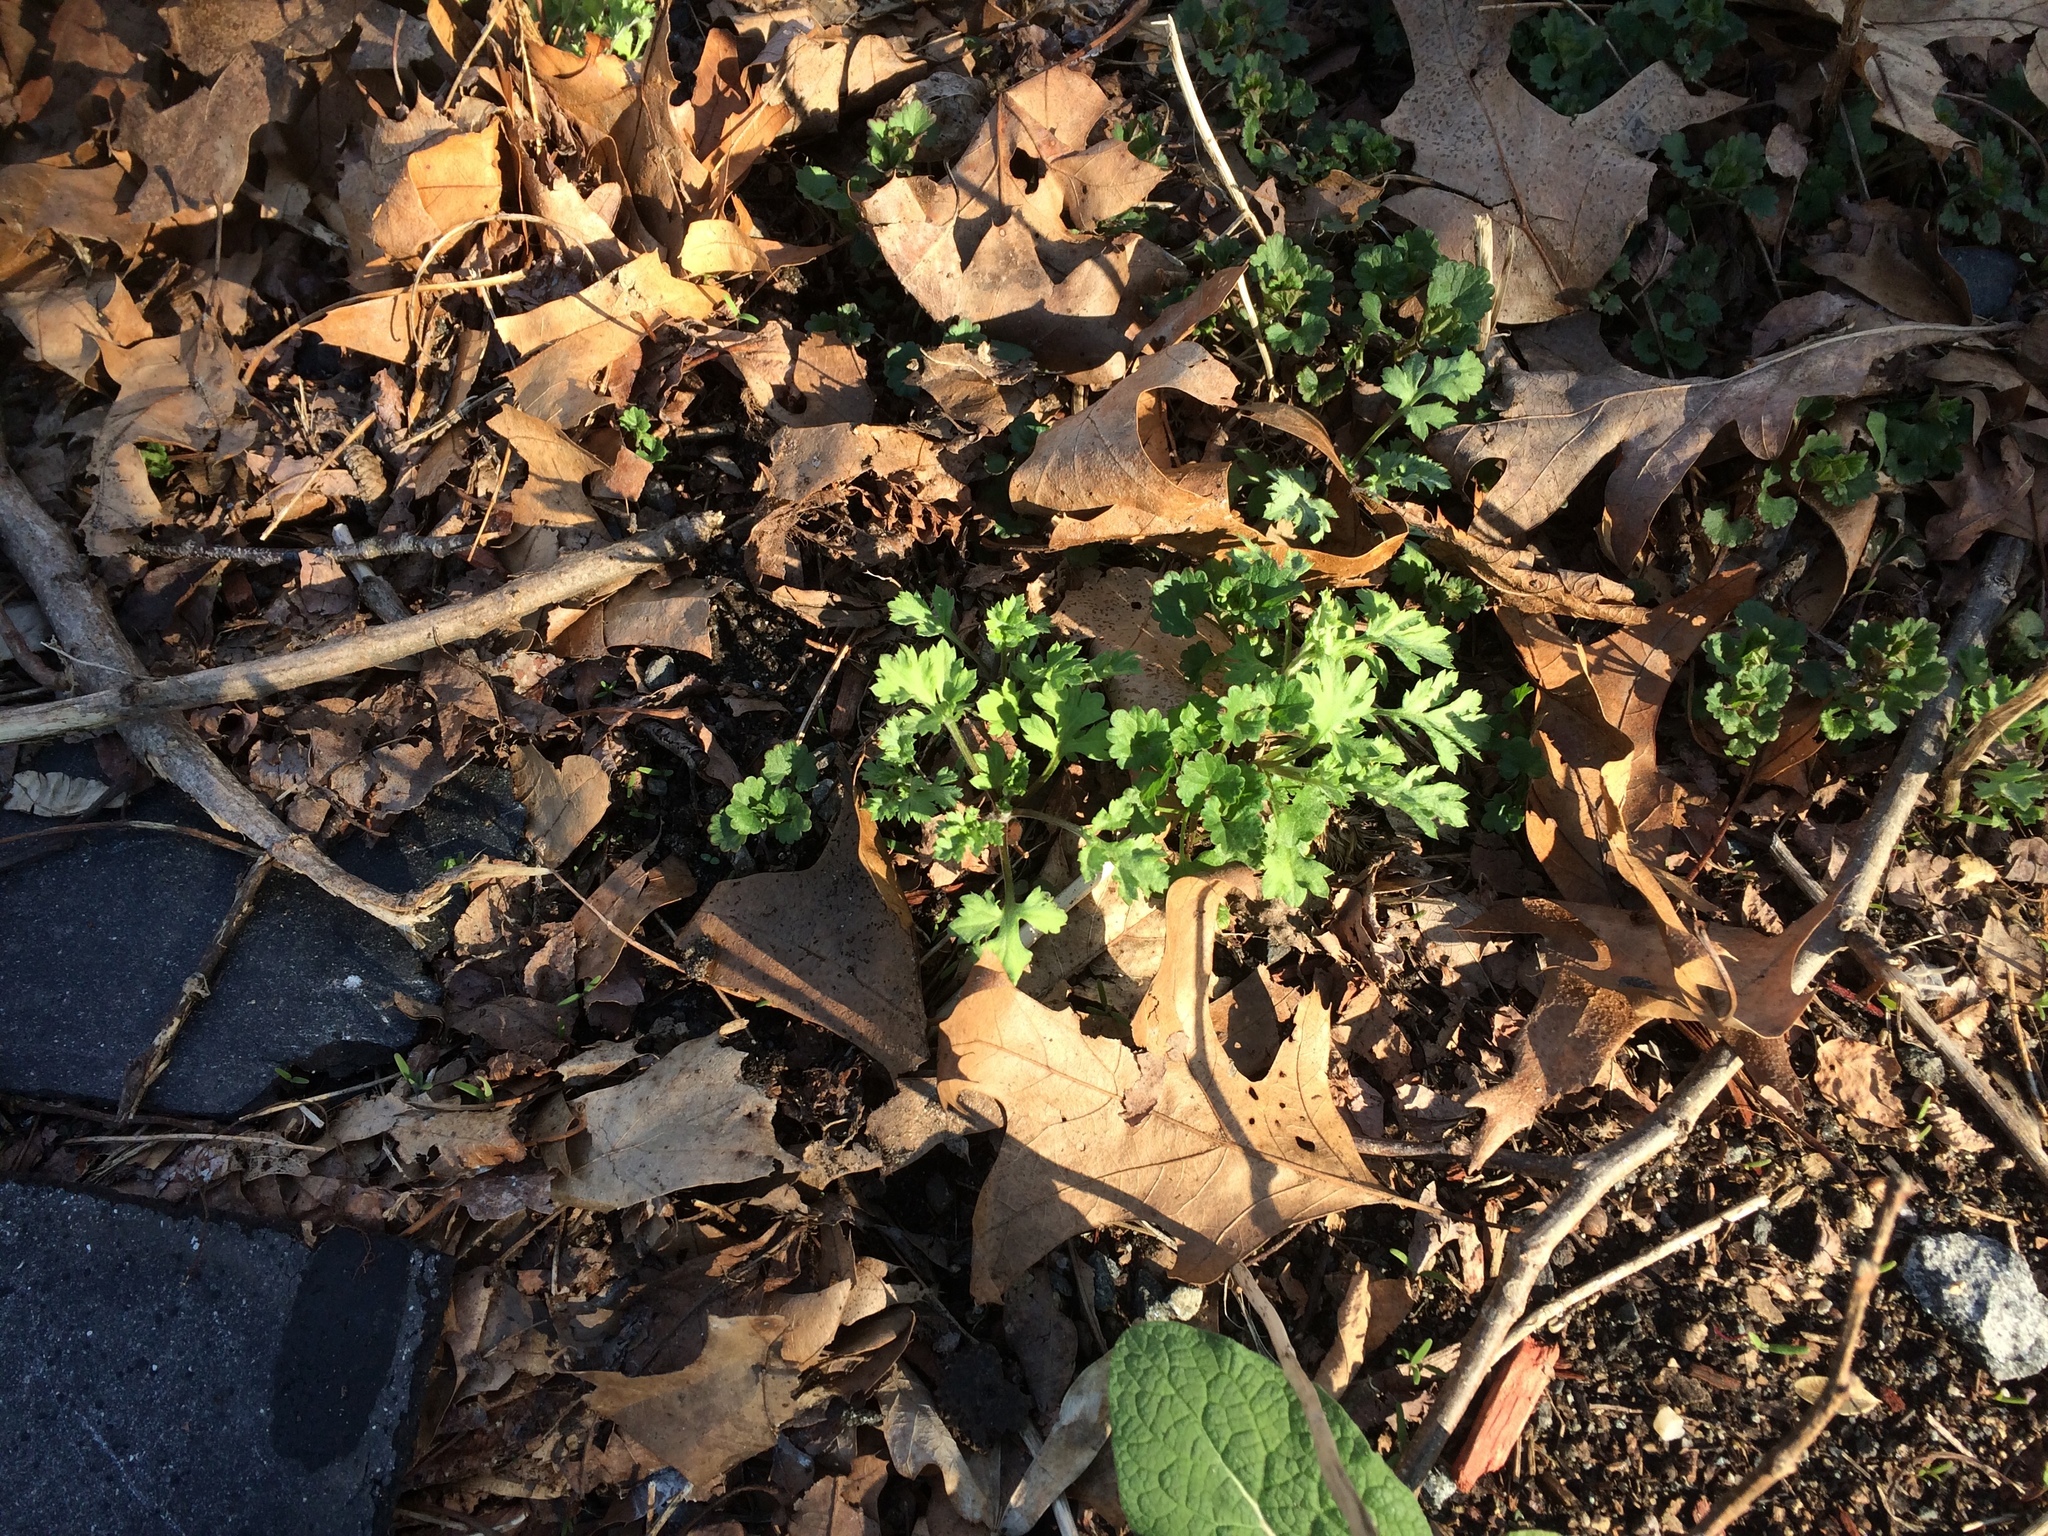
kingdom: Plantae
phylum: Tracheophyta
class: Magnoliopsida
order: Asterales
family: Asteraceae
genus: Artemisia
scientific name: Artemisia vulgaris
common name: Mugwort
